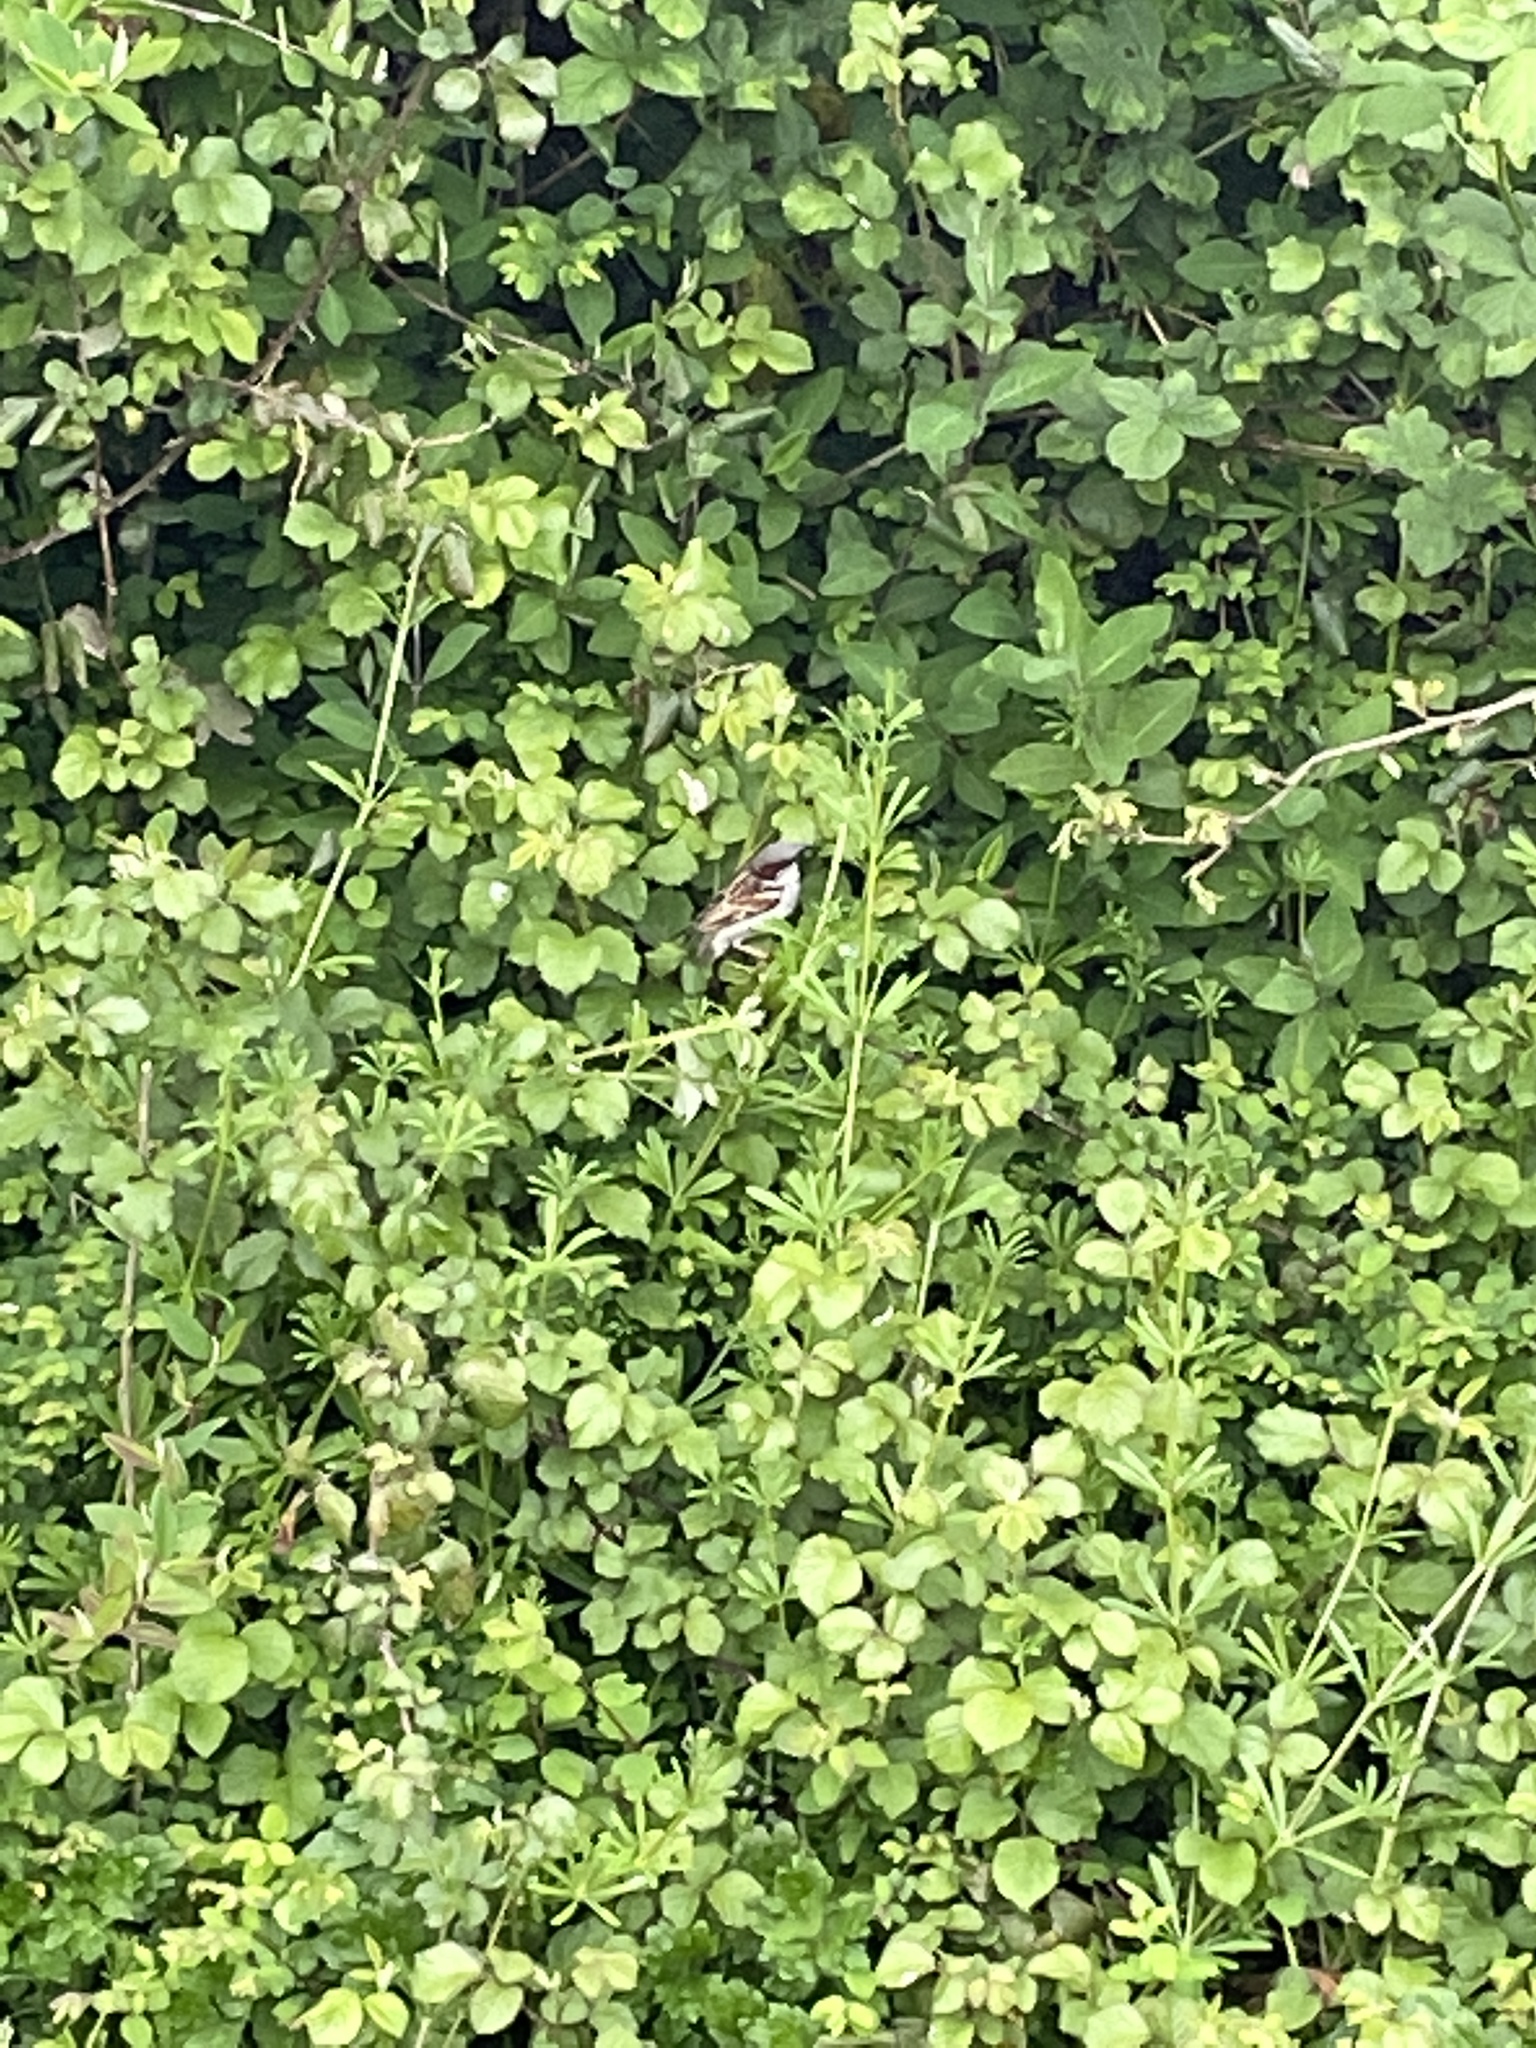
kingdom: Animalia
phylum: Chordata
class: Aves
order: Passeriformes
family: Passeridae
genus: Passer
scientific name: Passer domesticus
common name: House sparrow
